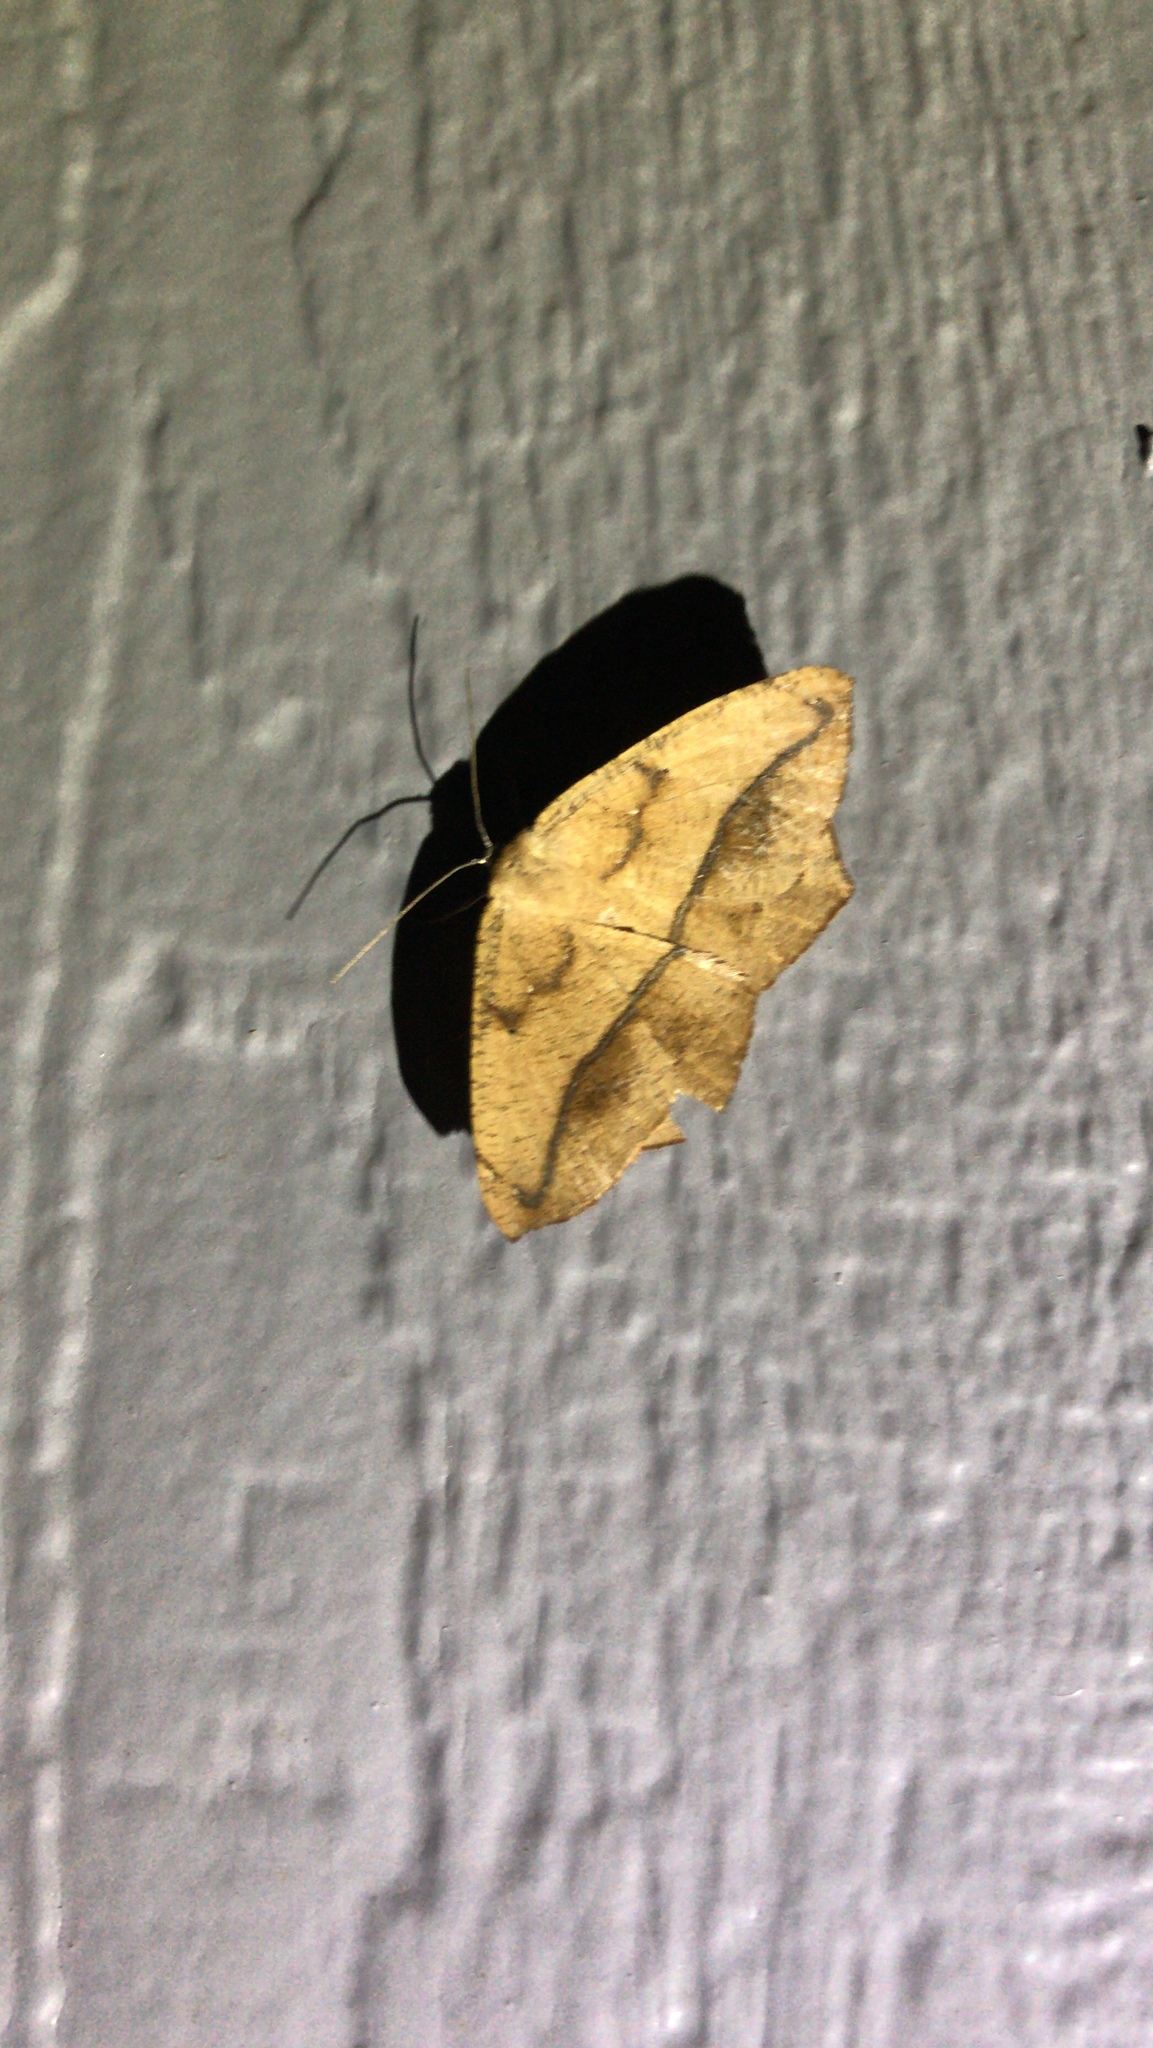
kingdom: Animalia
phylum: Arthropoda
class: Insecta
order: Lepidoptera
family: Geometridae
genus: Prochoerodes
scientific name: Prochoerodes lineola
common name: Large maple spanworm
